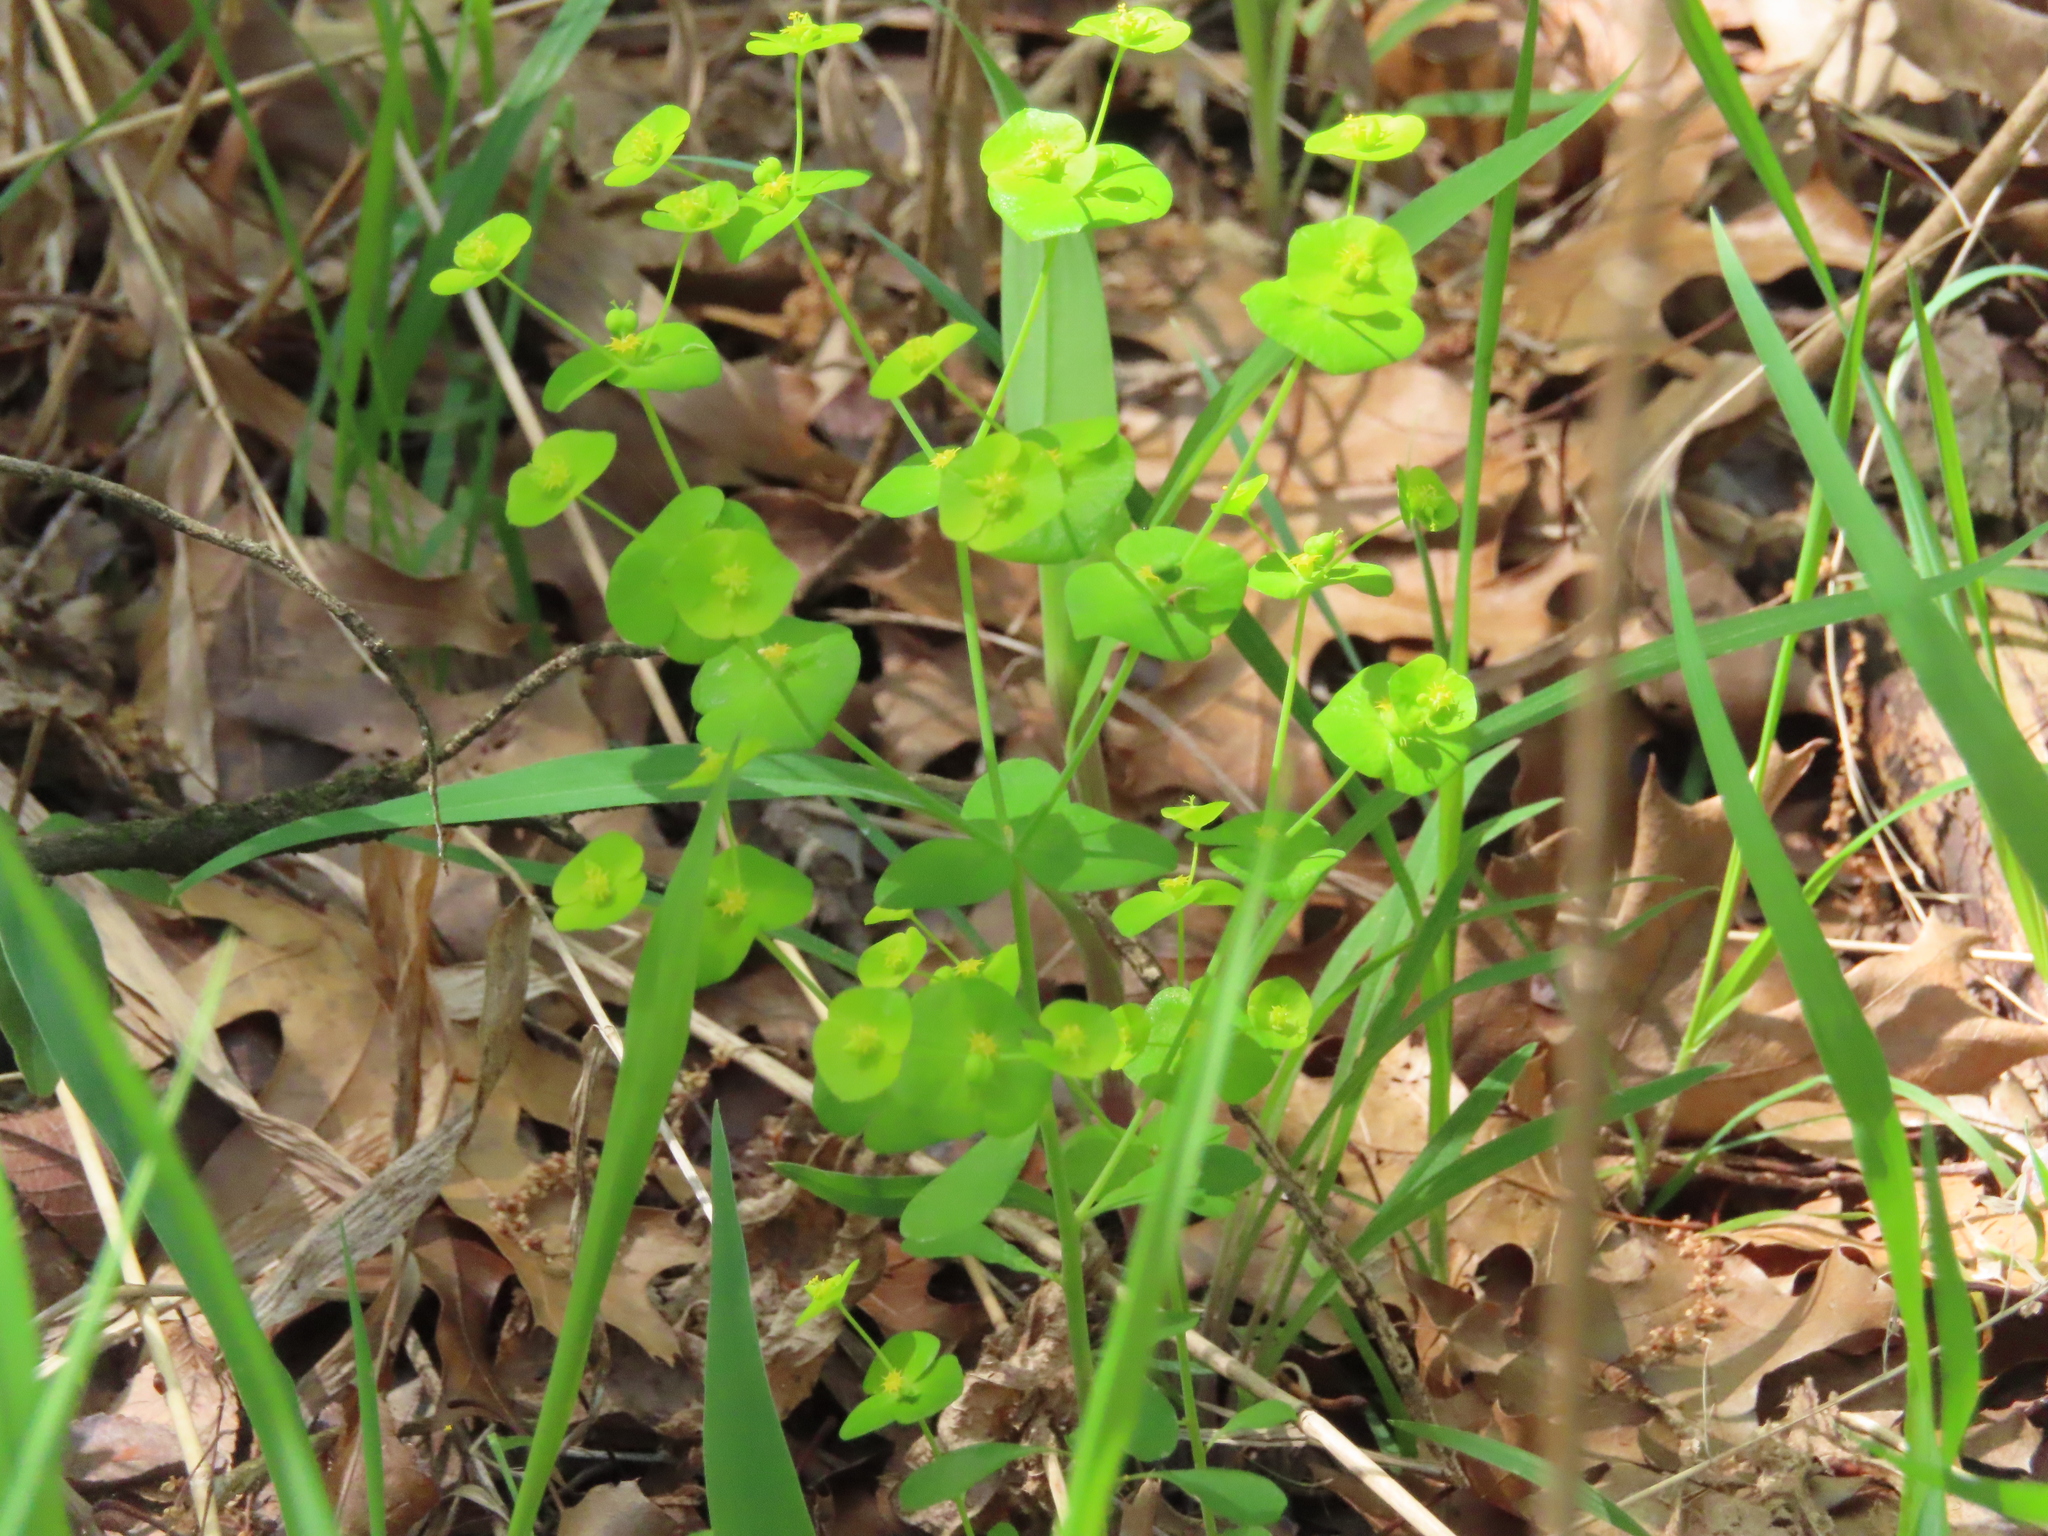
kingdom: Plantae
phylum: Tracheophyta
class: Magnoliopsida
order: Malpighiales
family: Euphorbiaceae
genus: Euphorbia
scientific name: Euphorbia roemeriana
